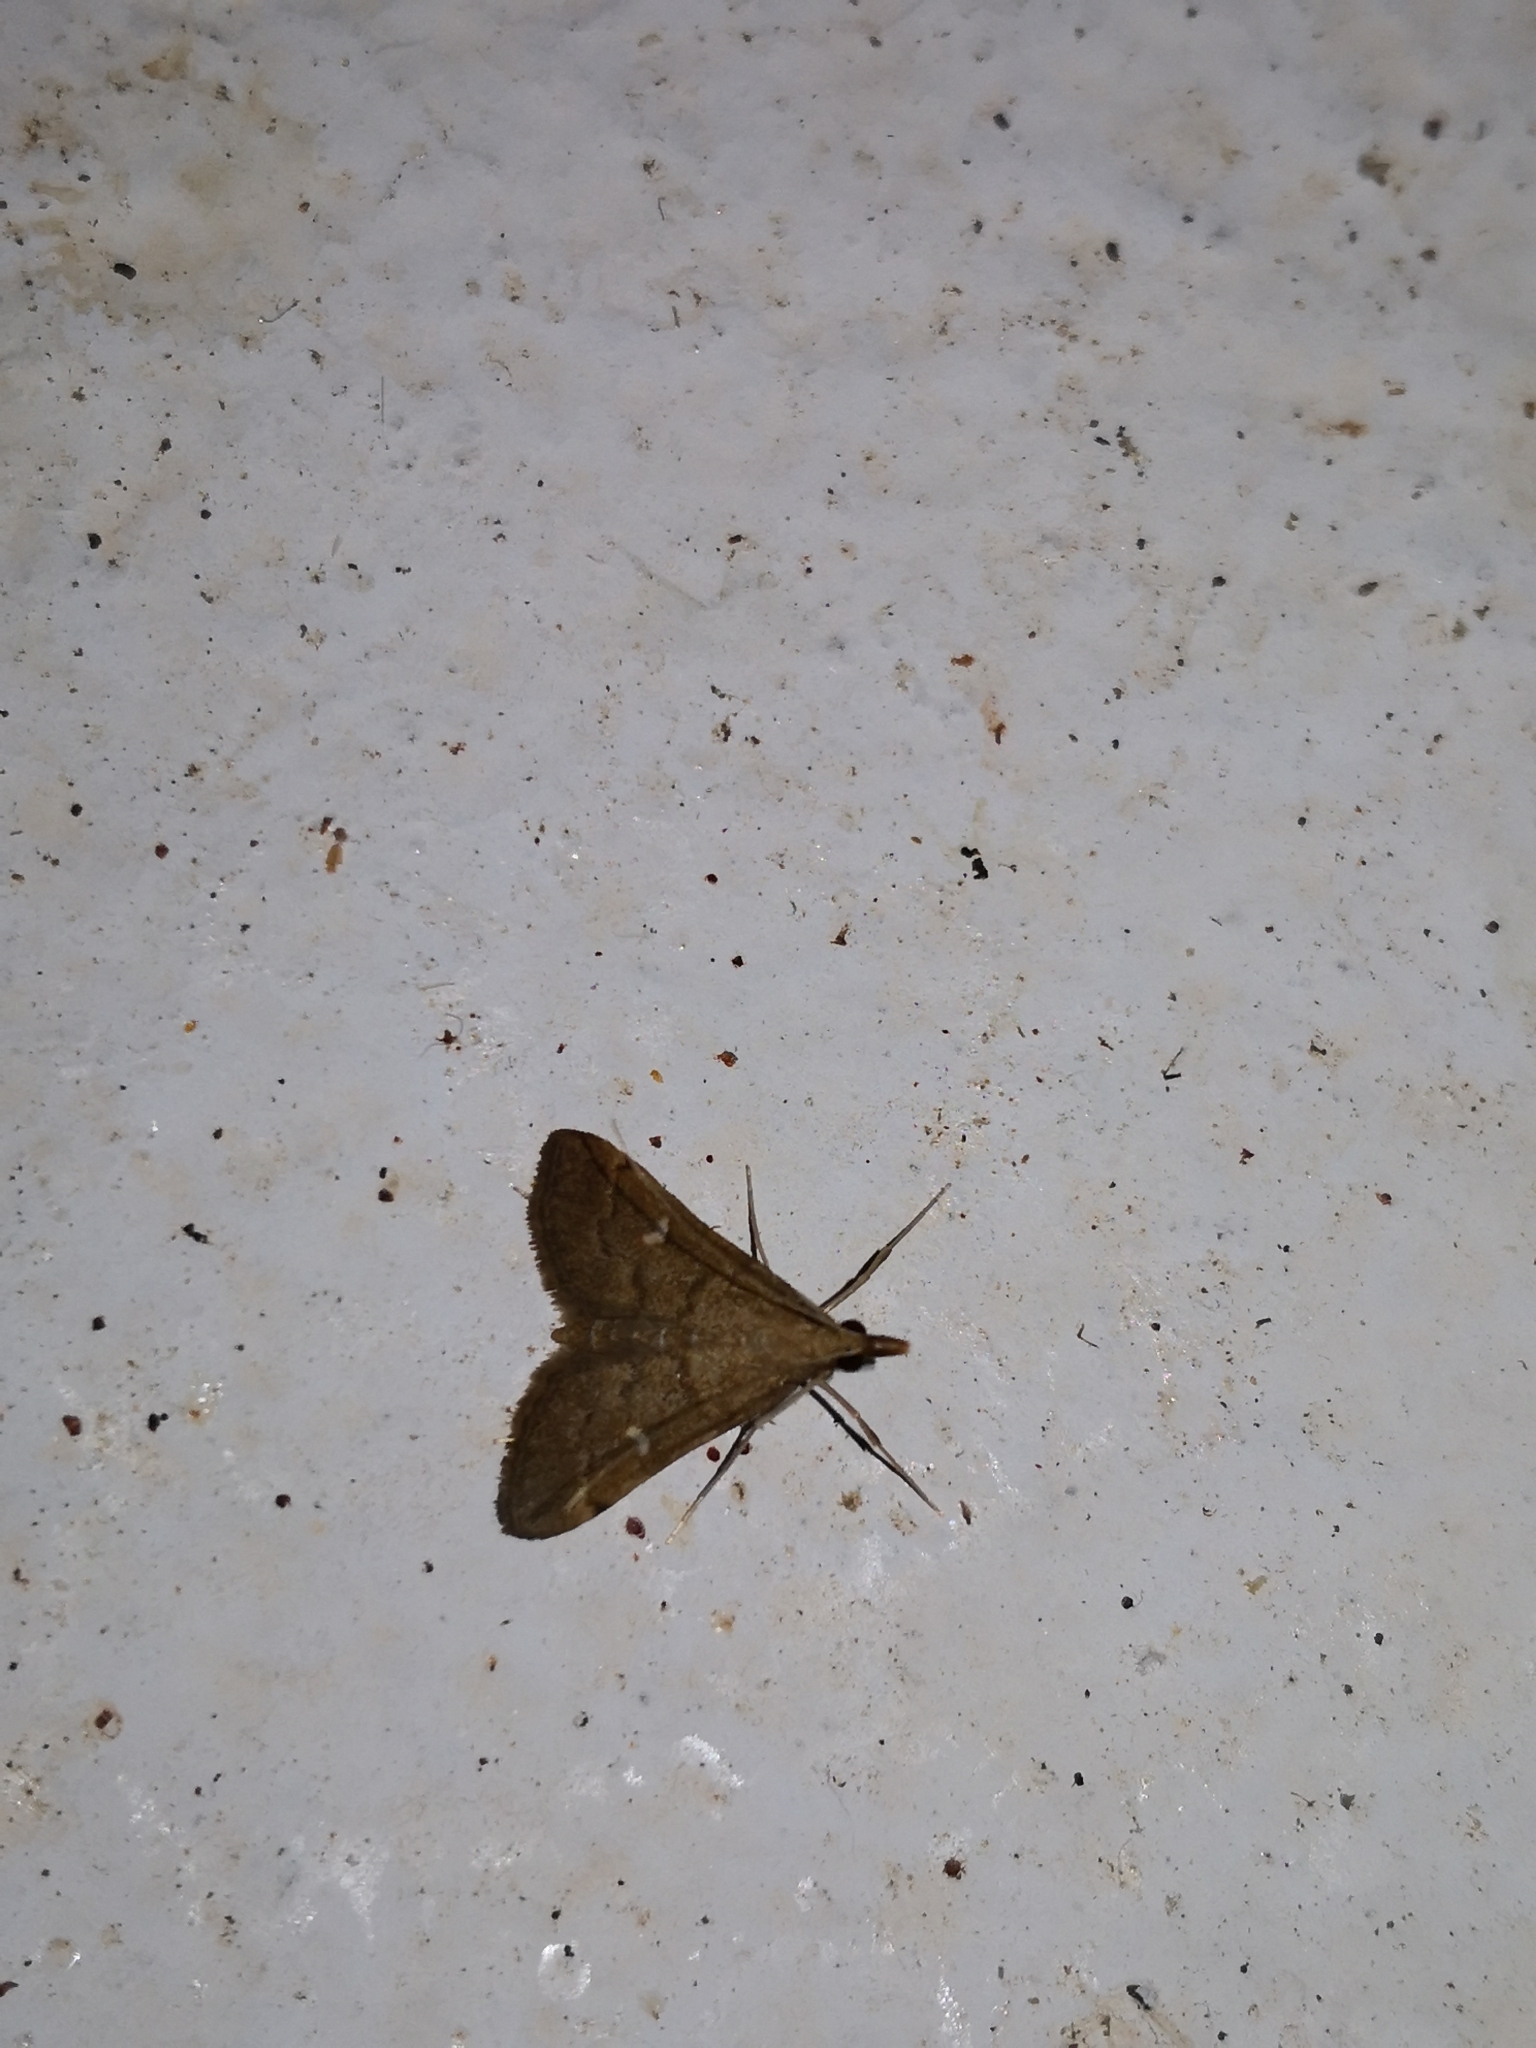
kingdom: Animalia
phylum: Arthropoda
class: Insecta
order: Lepidoptera
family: Crambidae
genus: Stenia
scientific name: Stenia Dolicharthria punctalis
